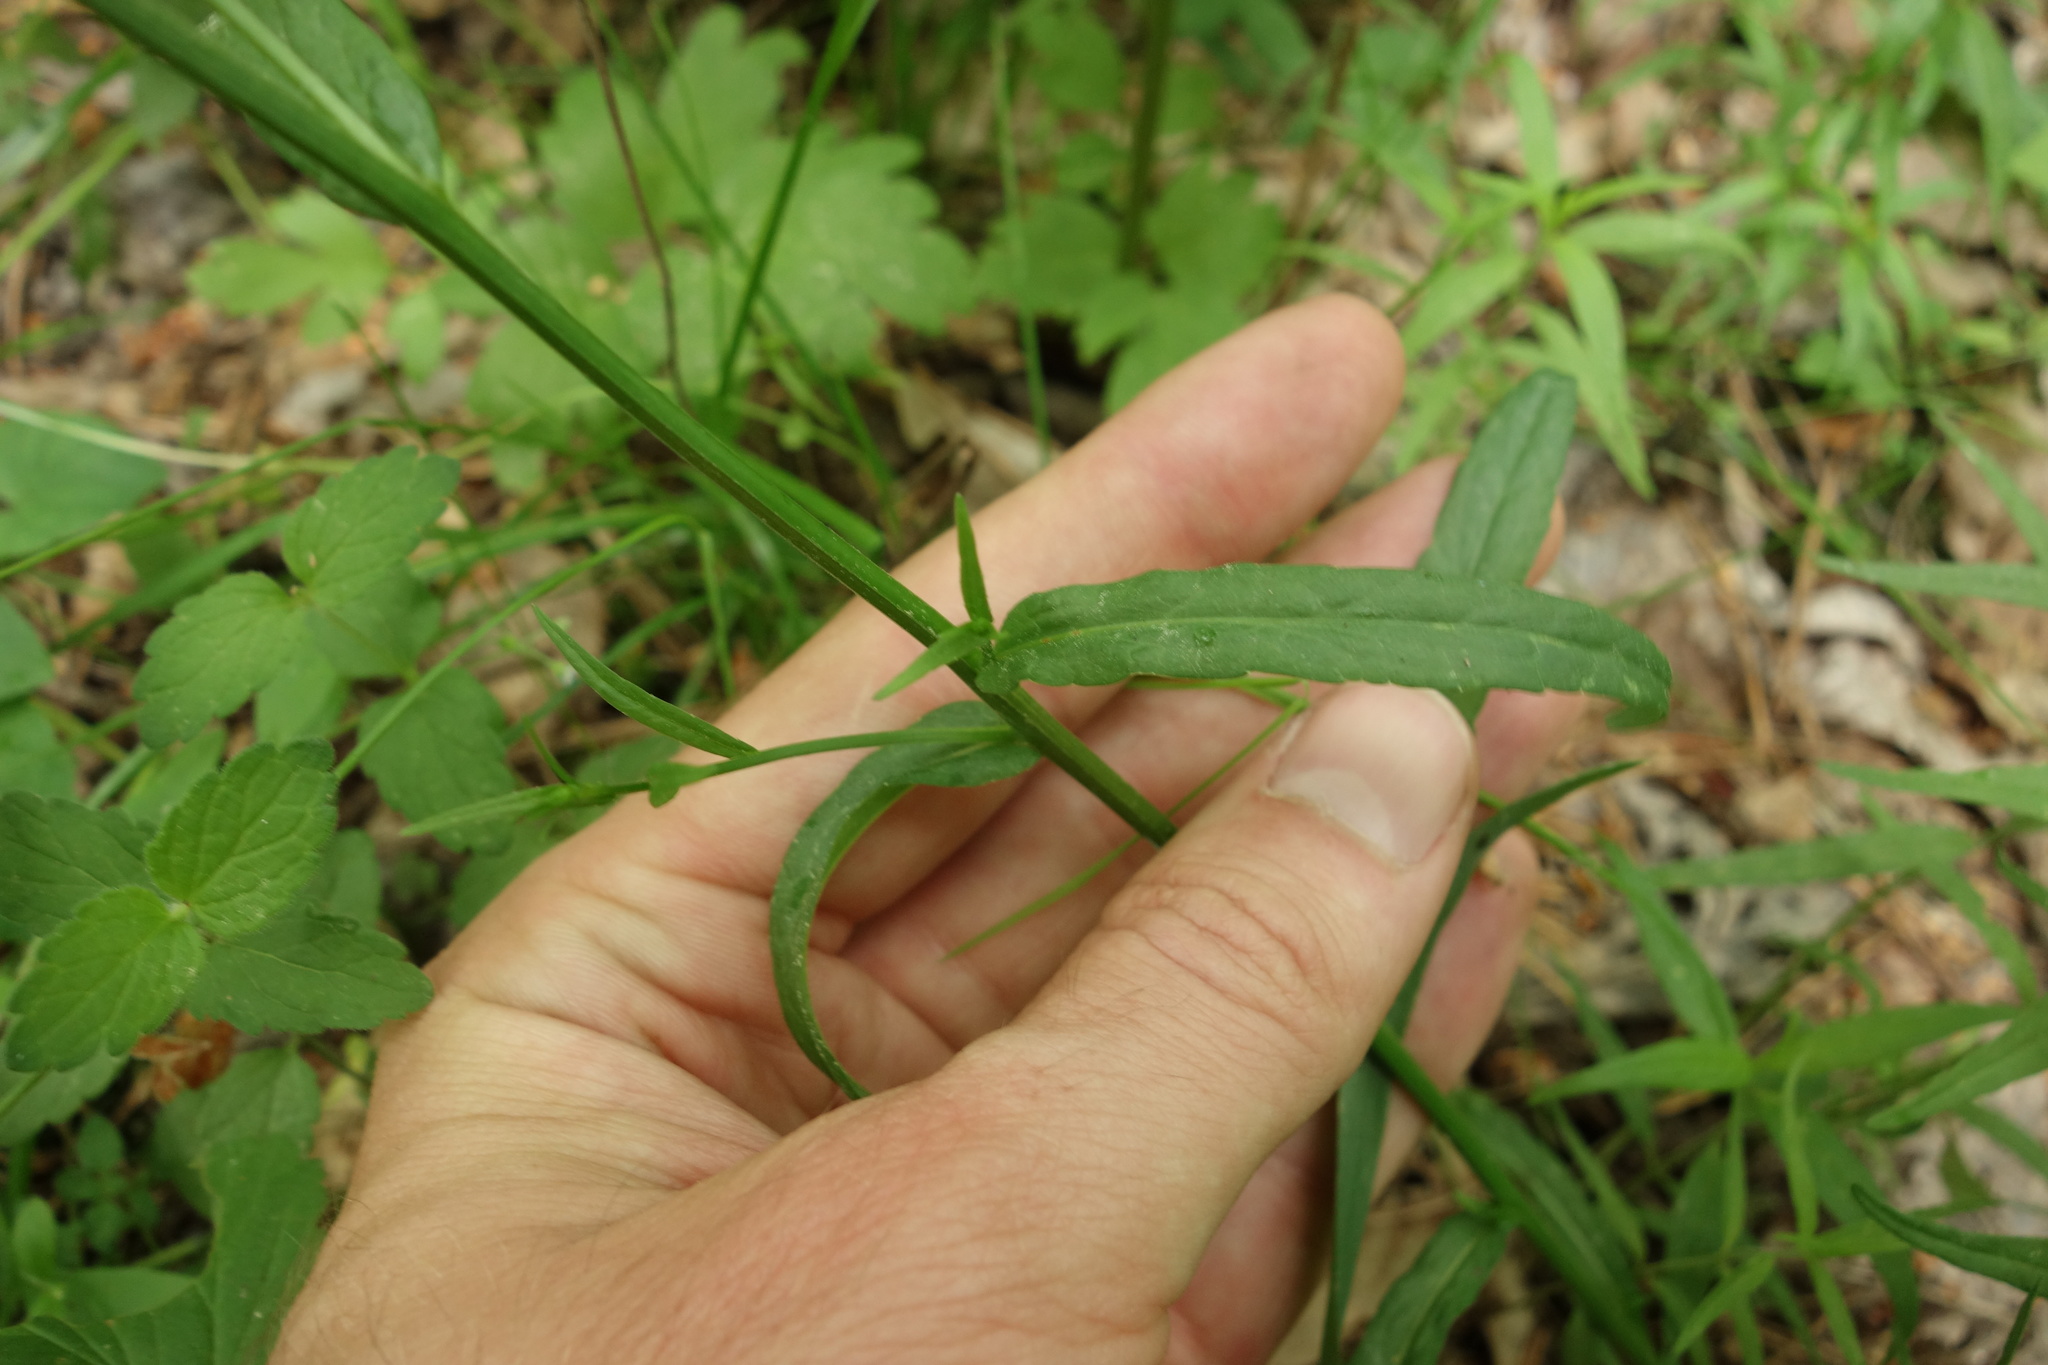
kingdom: Plantae
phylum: Tracheophyta
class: Magnoliopsida
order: Asterales
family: Campanulaceae
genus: Campanula
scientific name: Campanula patula
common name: Spreading bellflower
